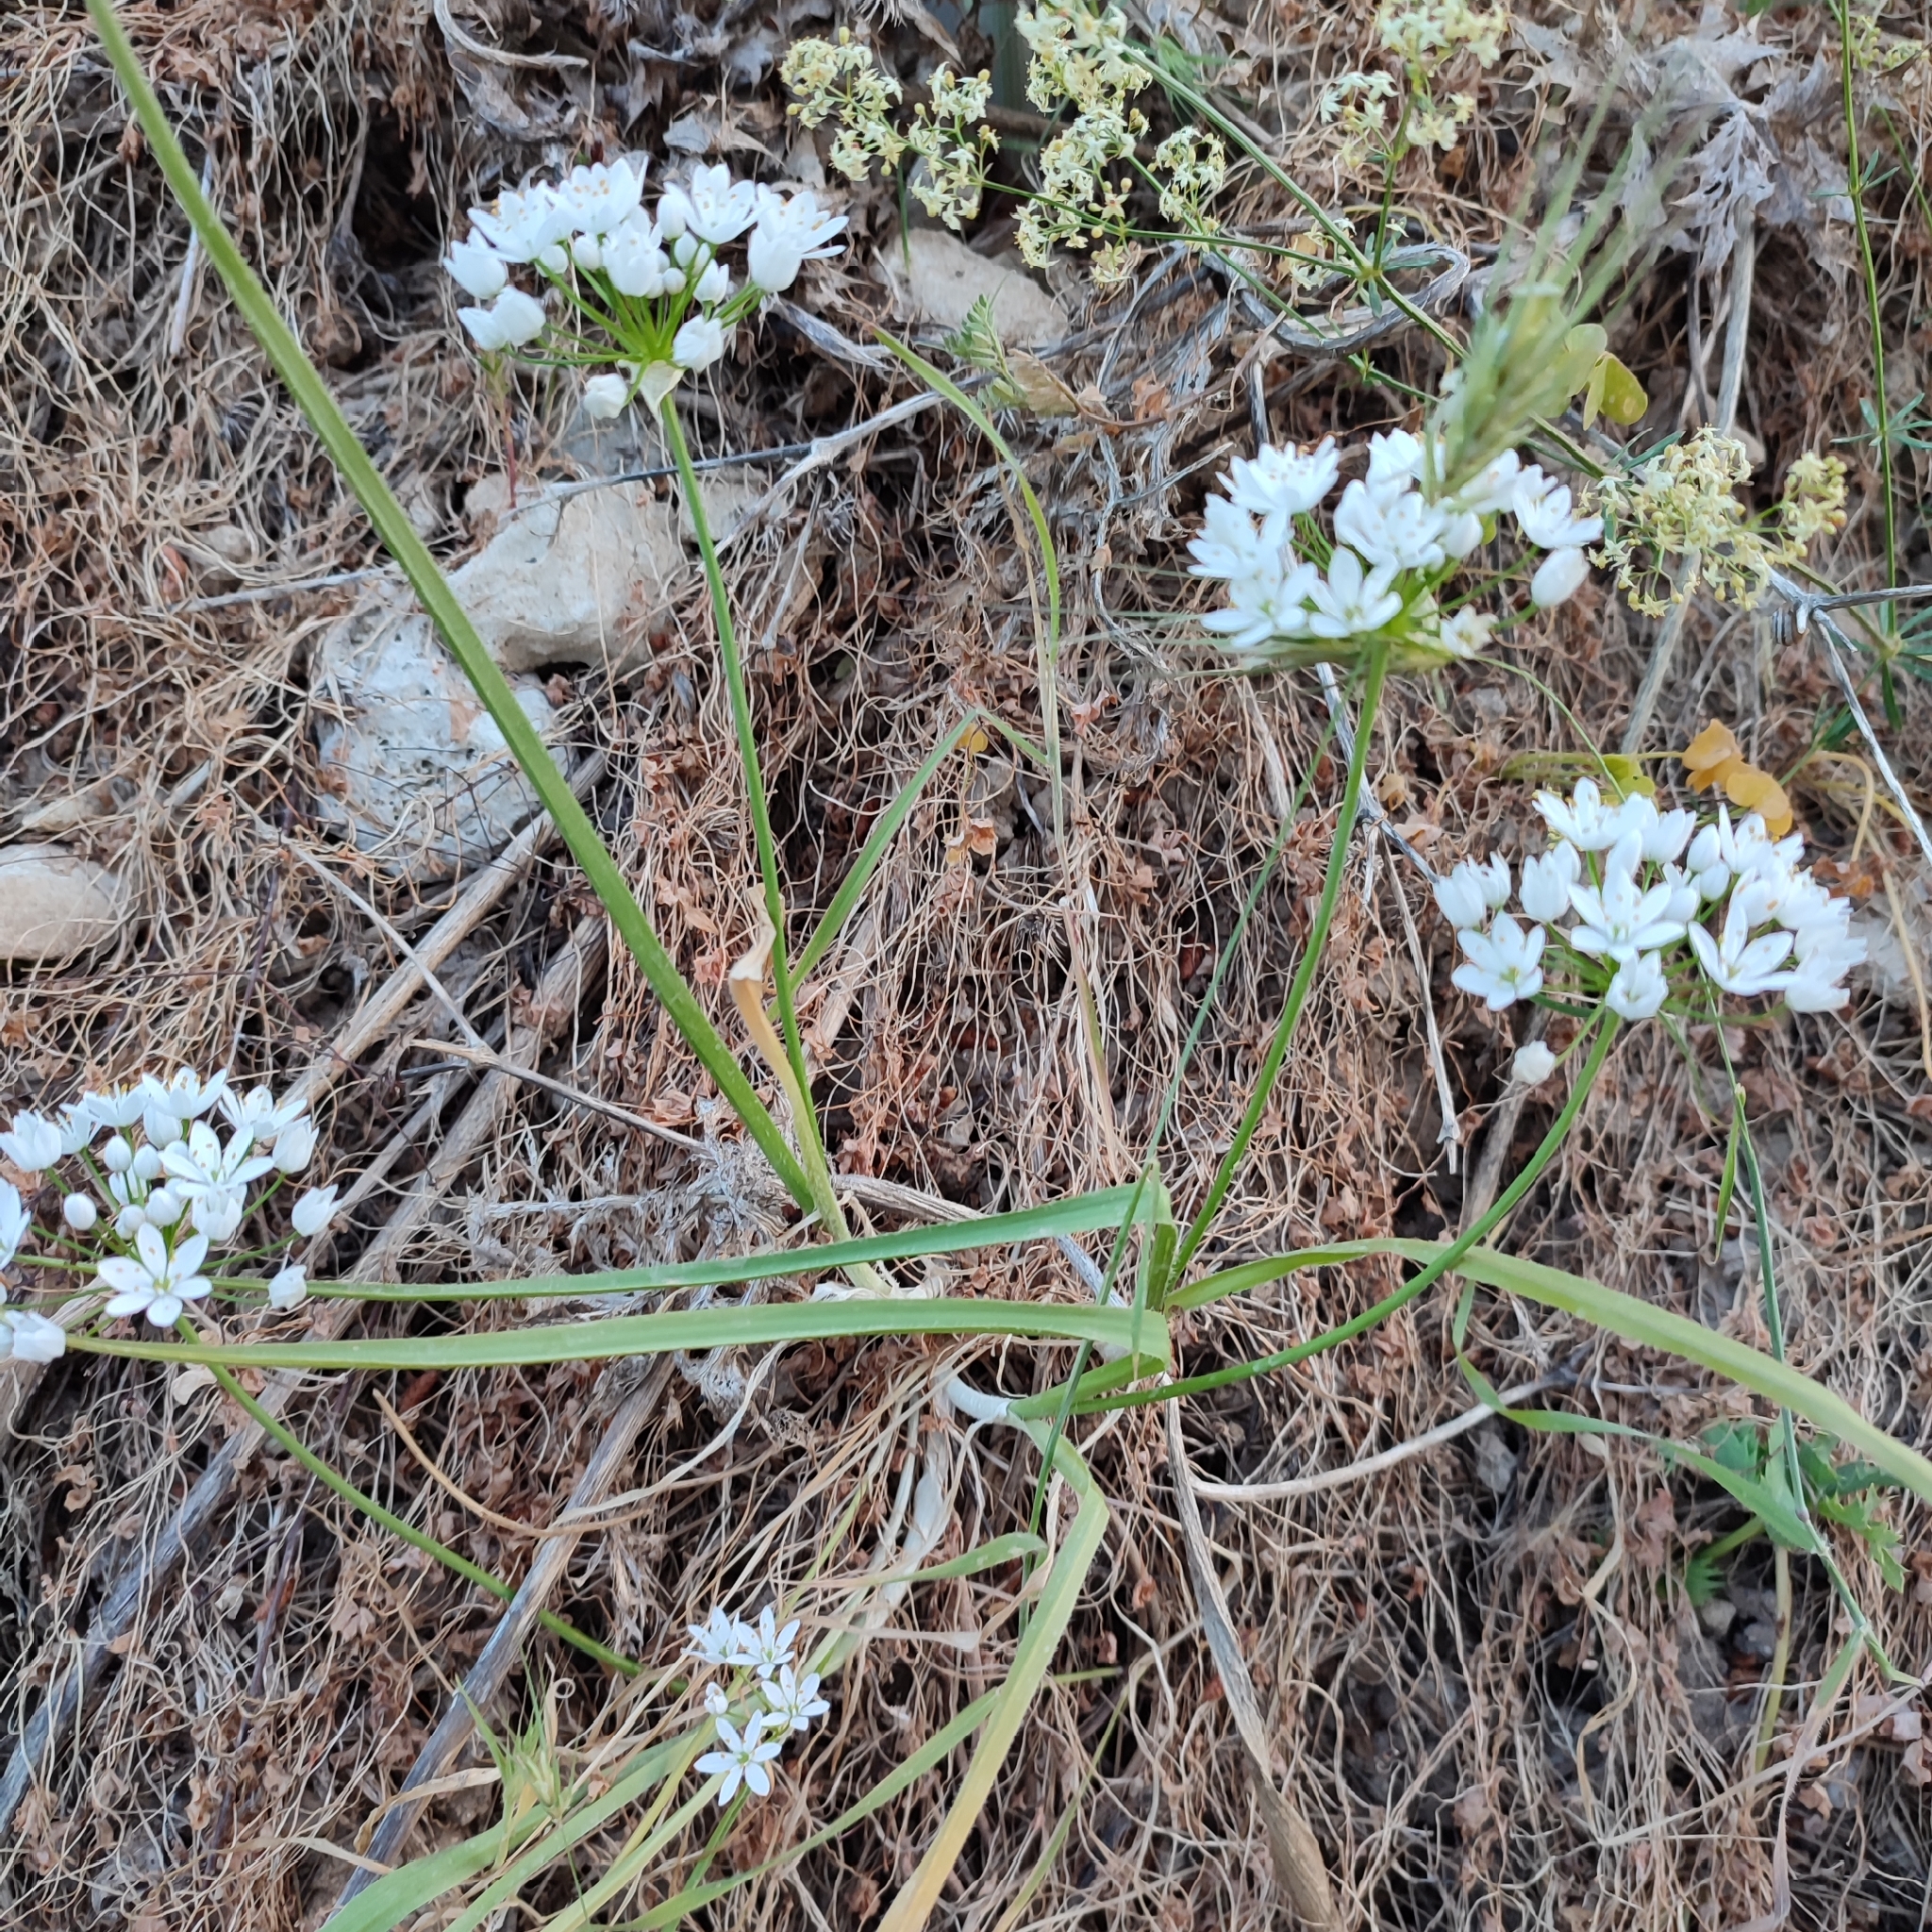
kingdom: Plantae
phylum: Tracheophyta
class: Liliopsida
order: Asparagales
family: Amaryllidaceae
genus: Allium
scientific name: Allium neapolitanum
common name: Neapolitan garlic
